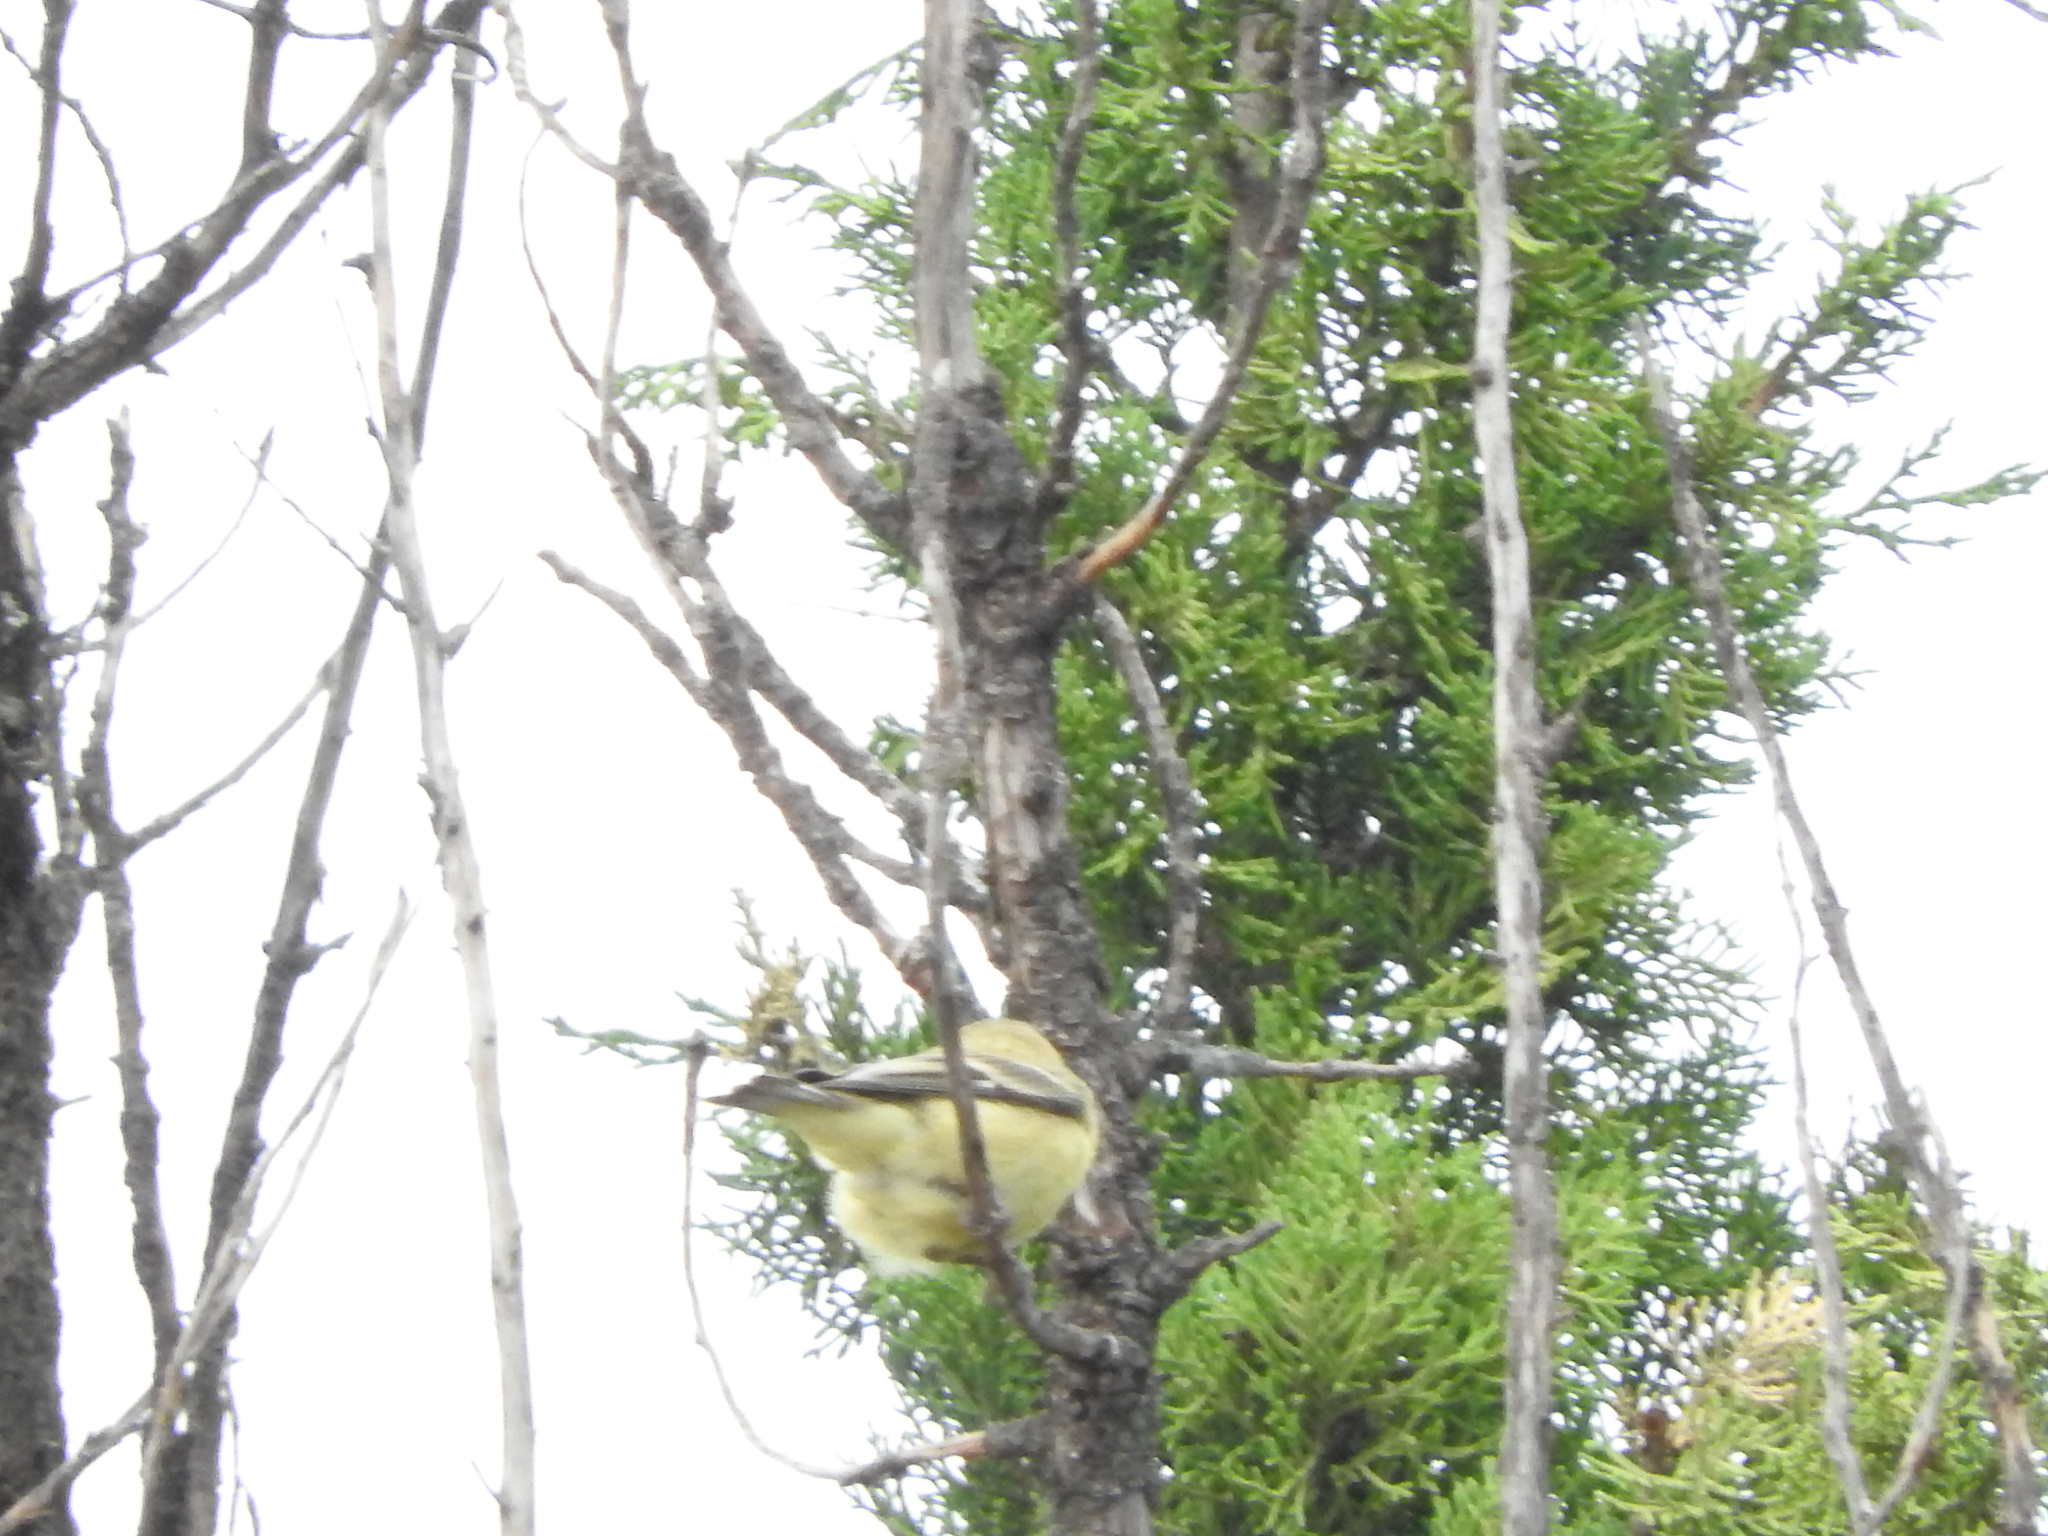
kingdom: Animalia
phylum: Chordata
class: Aves
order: Passeriformes
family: Fringillidae
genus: Spinus
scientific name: Spinus psaltria
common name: Lesser goldfinch
